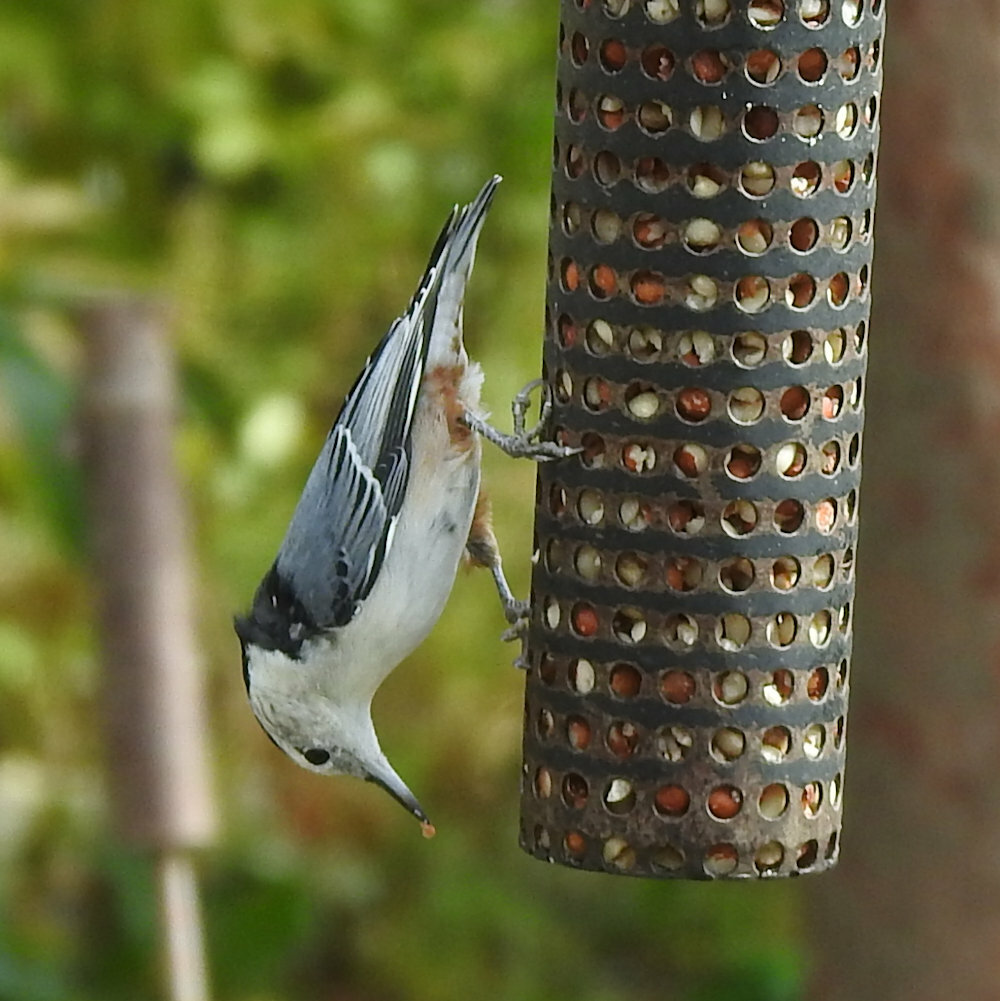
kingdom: Animalia
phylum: Chordata
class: Aves
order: Passeriformes
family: Sittidae
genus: Sitta
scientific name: Sitta carolinensis
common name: White-breasted nuthatch
